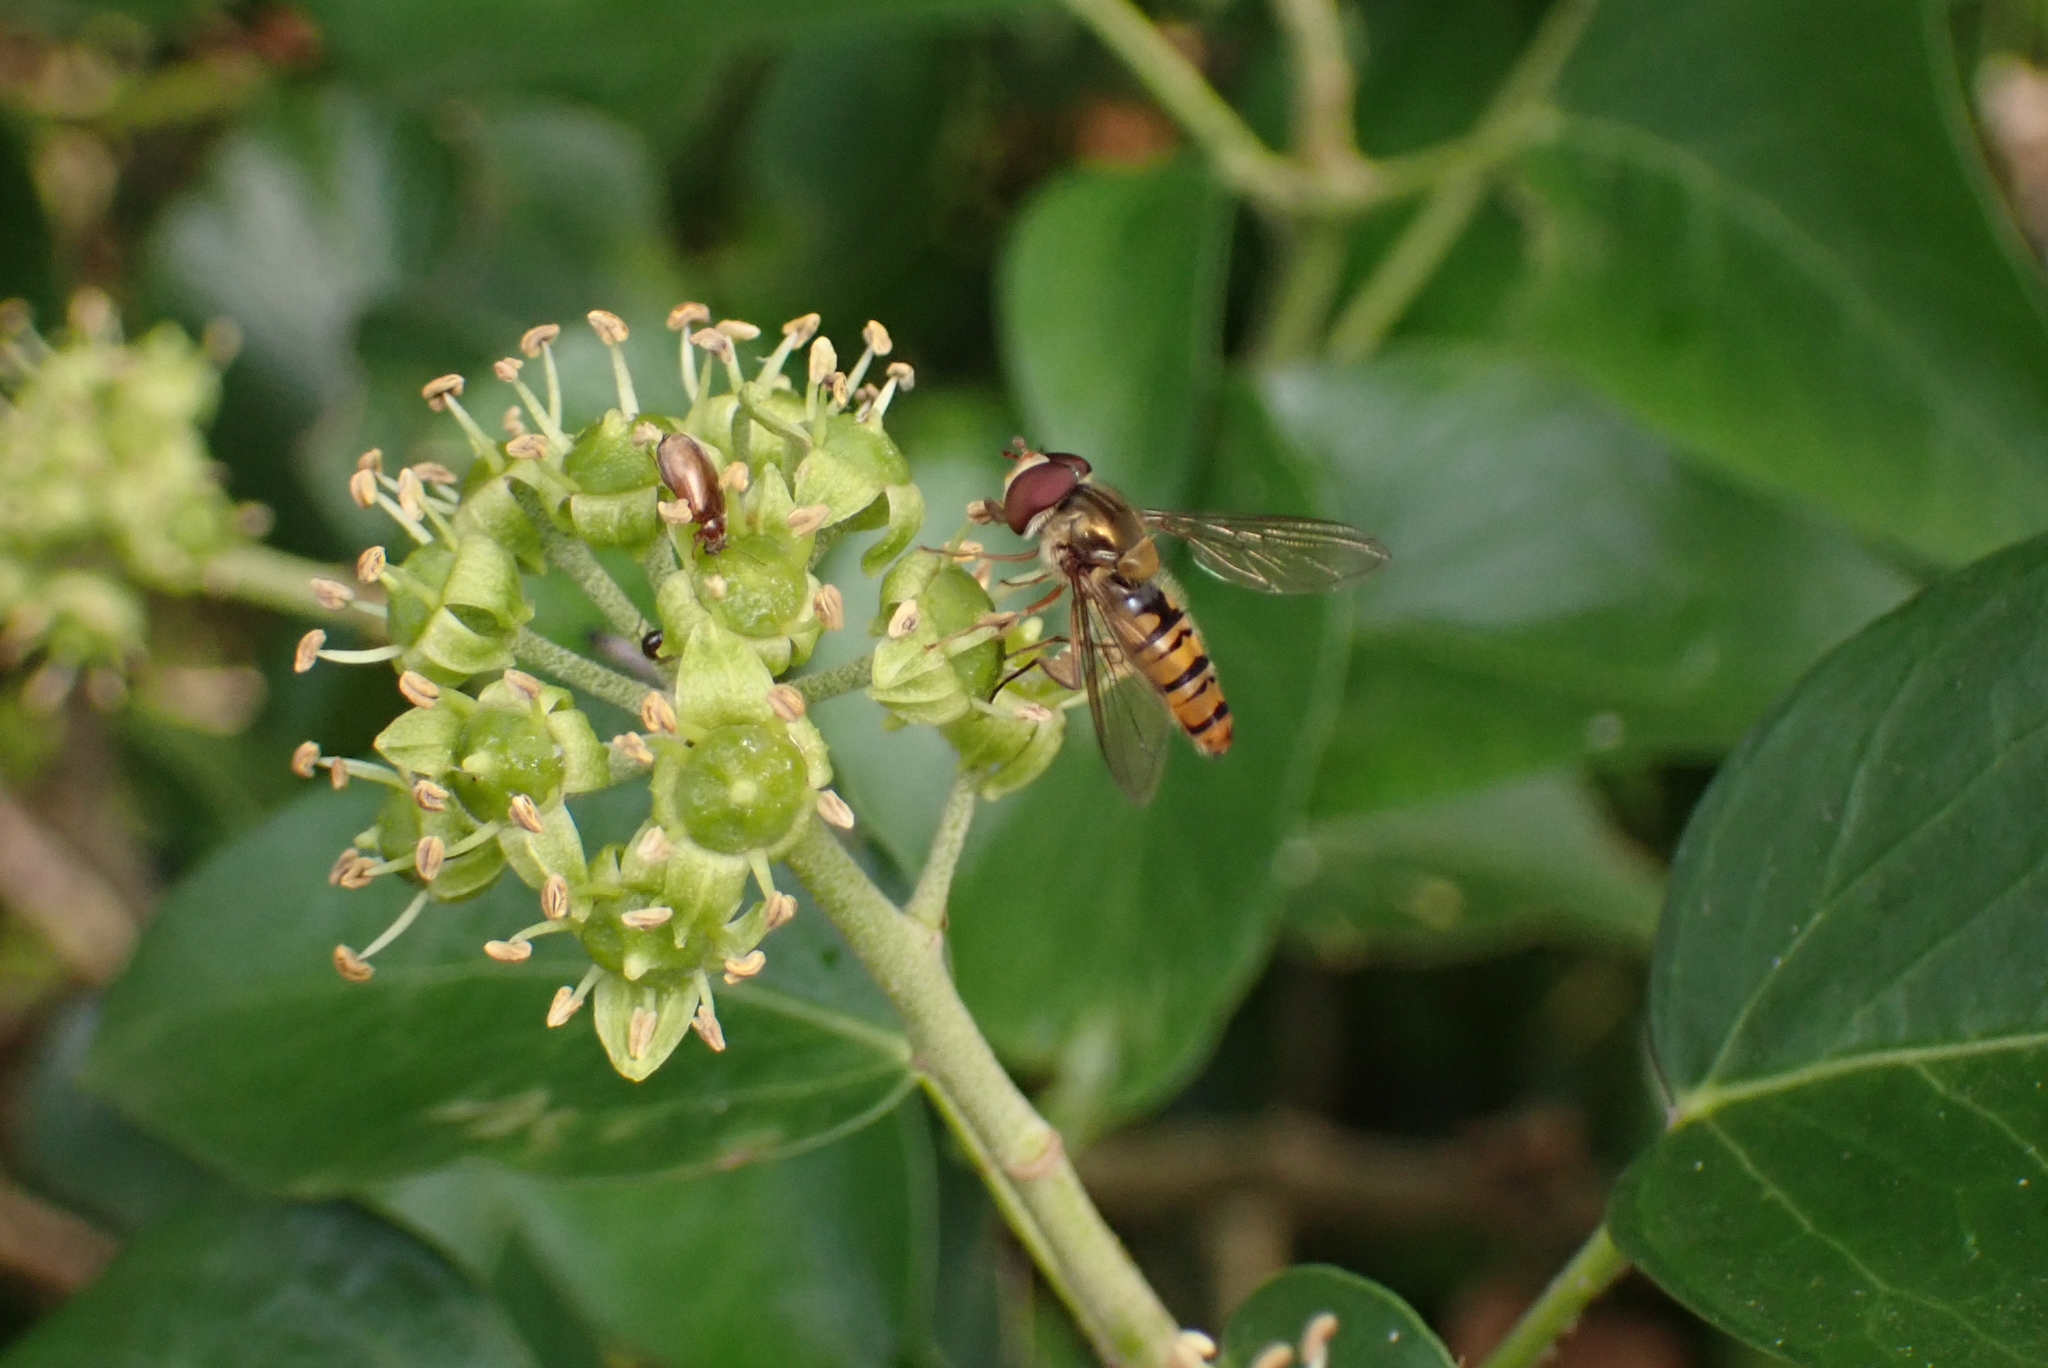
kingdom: Animalia
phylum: Arthropoda
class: Insecta
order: Diptera
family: Syrphidae
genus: Episyrphus
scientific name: Episyrphus balteatus
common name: Marmalade hoverfly
